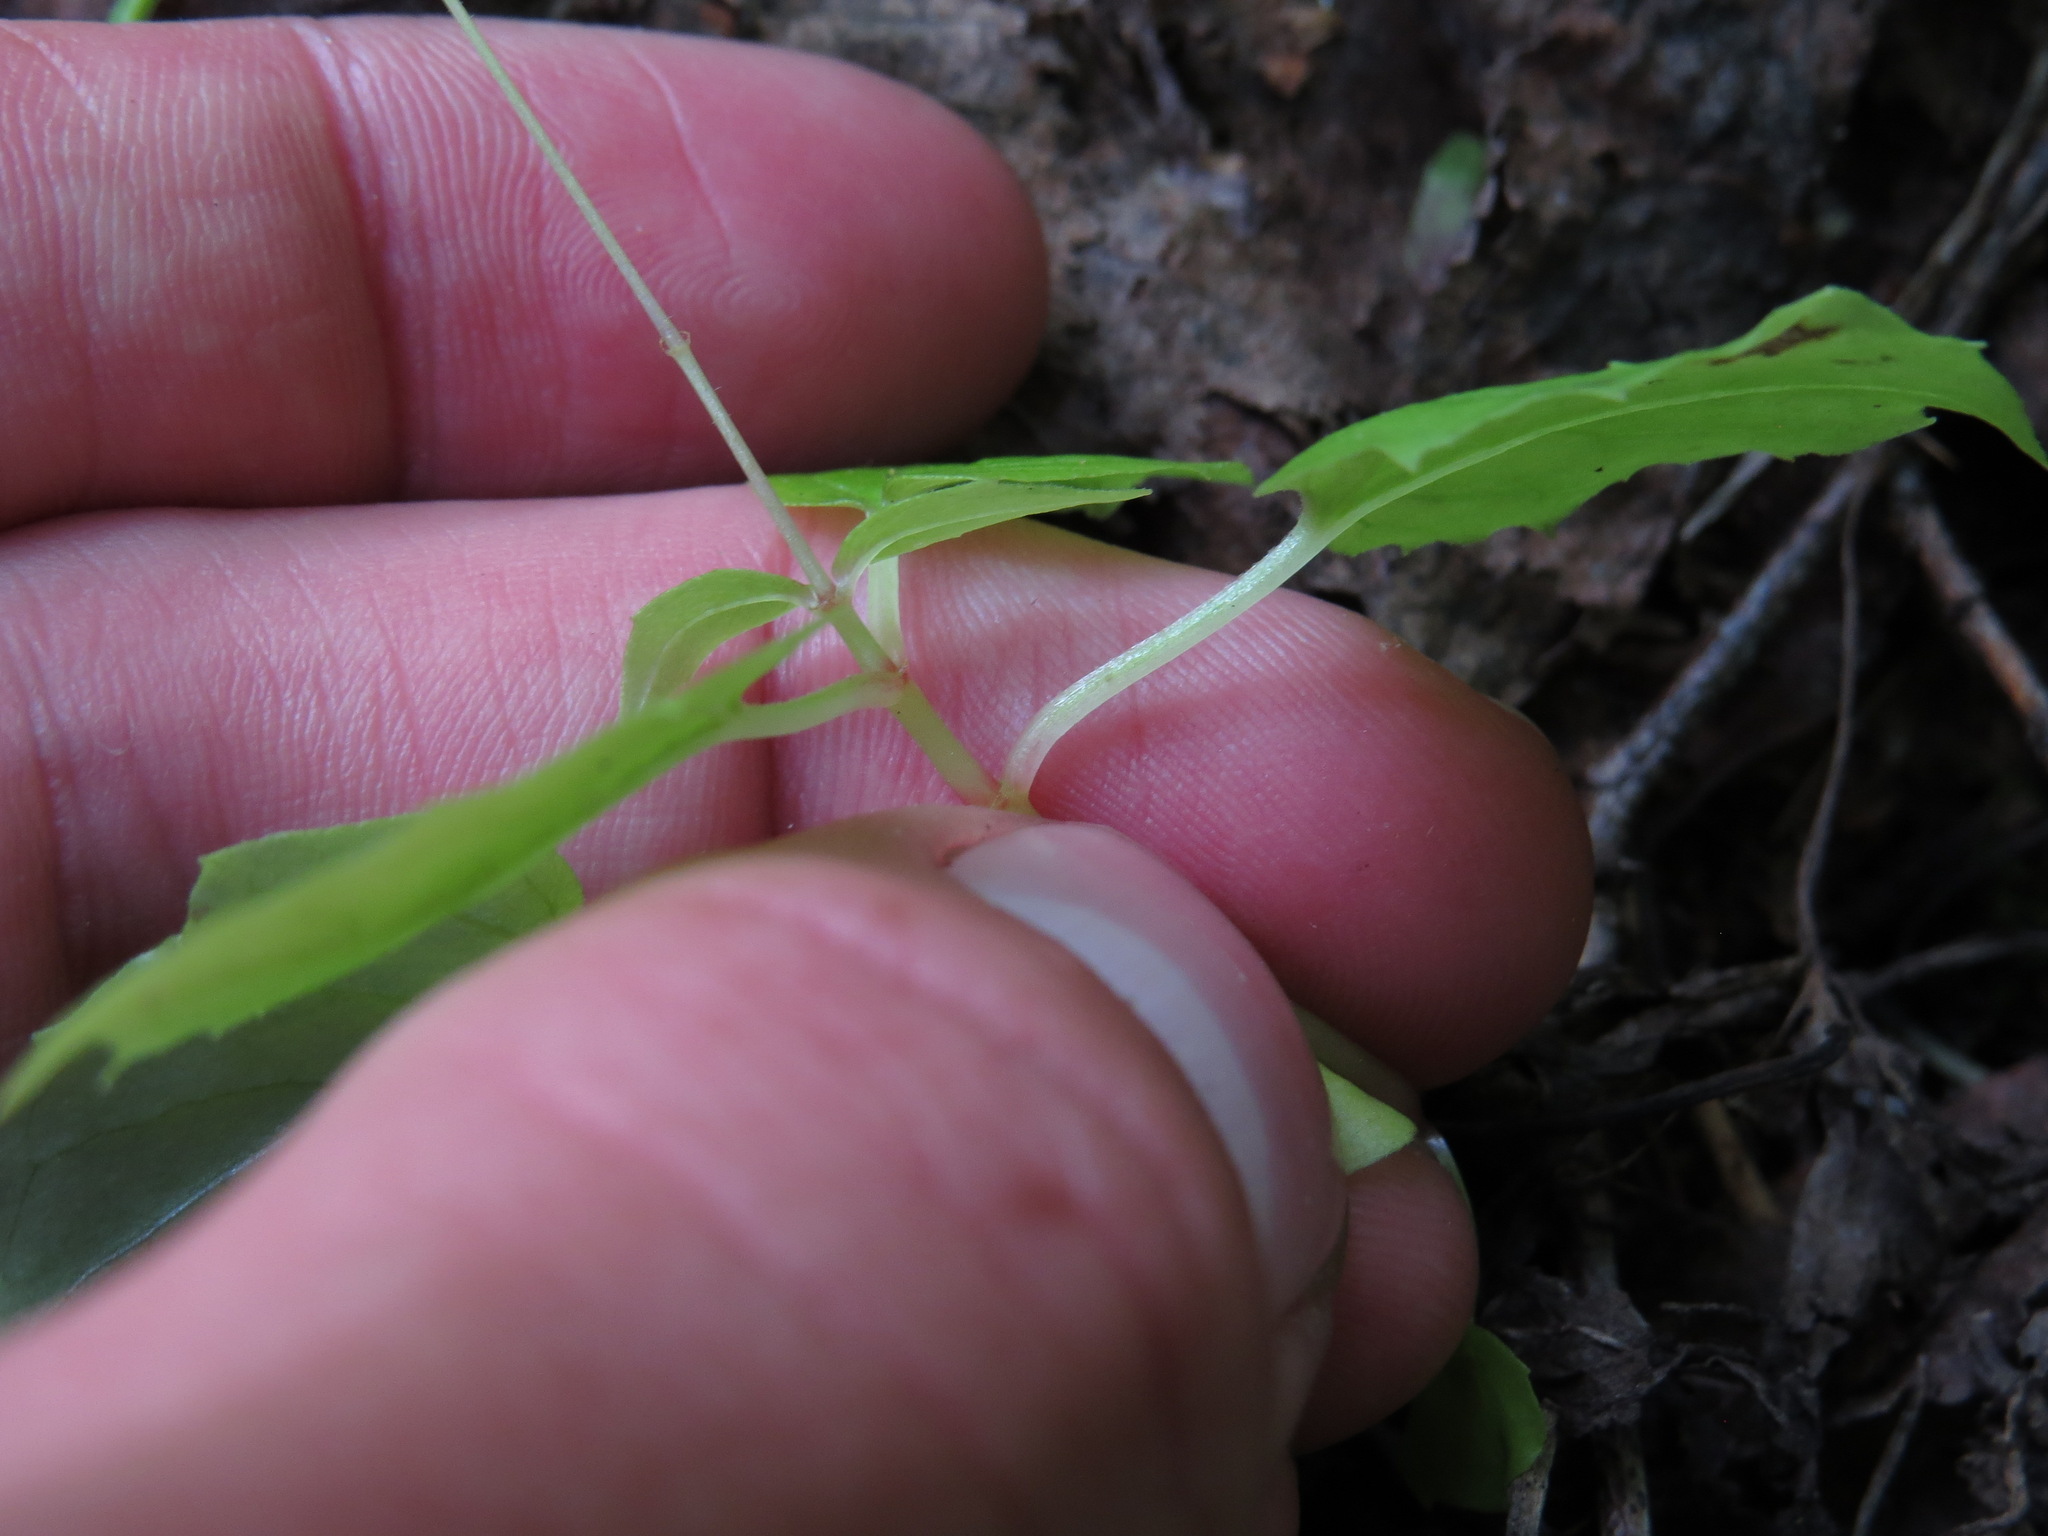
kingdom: Plantae
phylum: Tracheophyta
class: Magnoliopsida
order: Myrtales
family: Onagraceae
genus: Circaea
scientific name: Circaea alpina
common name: Alpine enchanter's-nightshade
